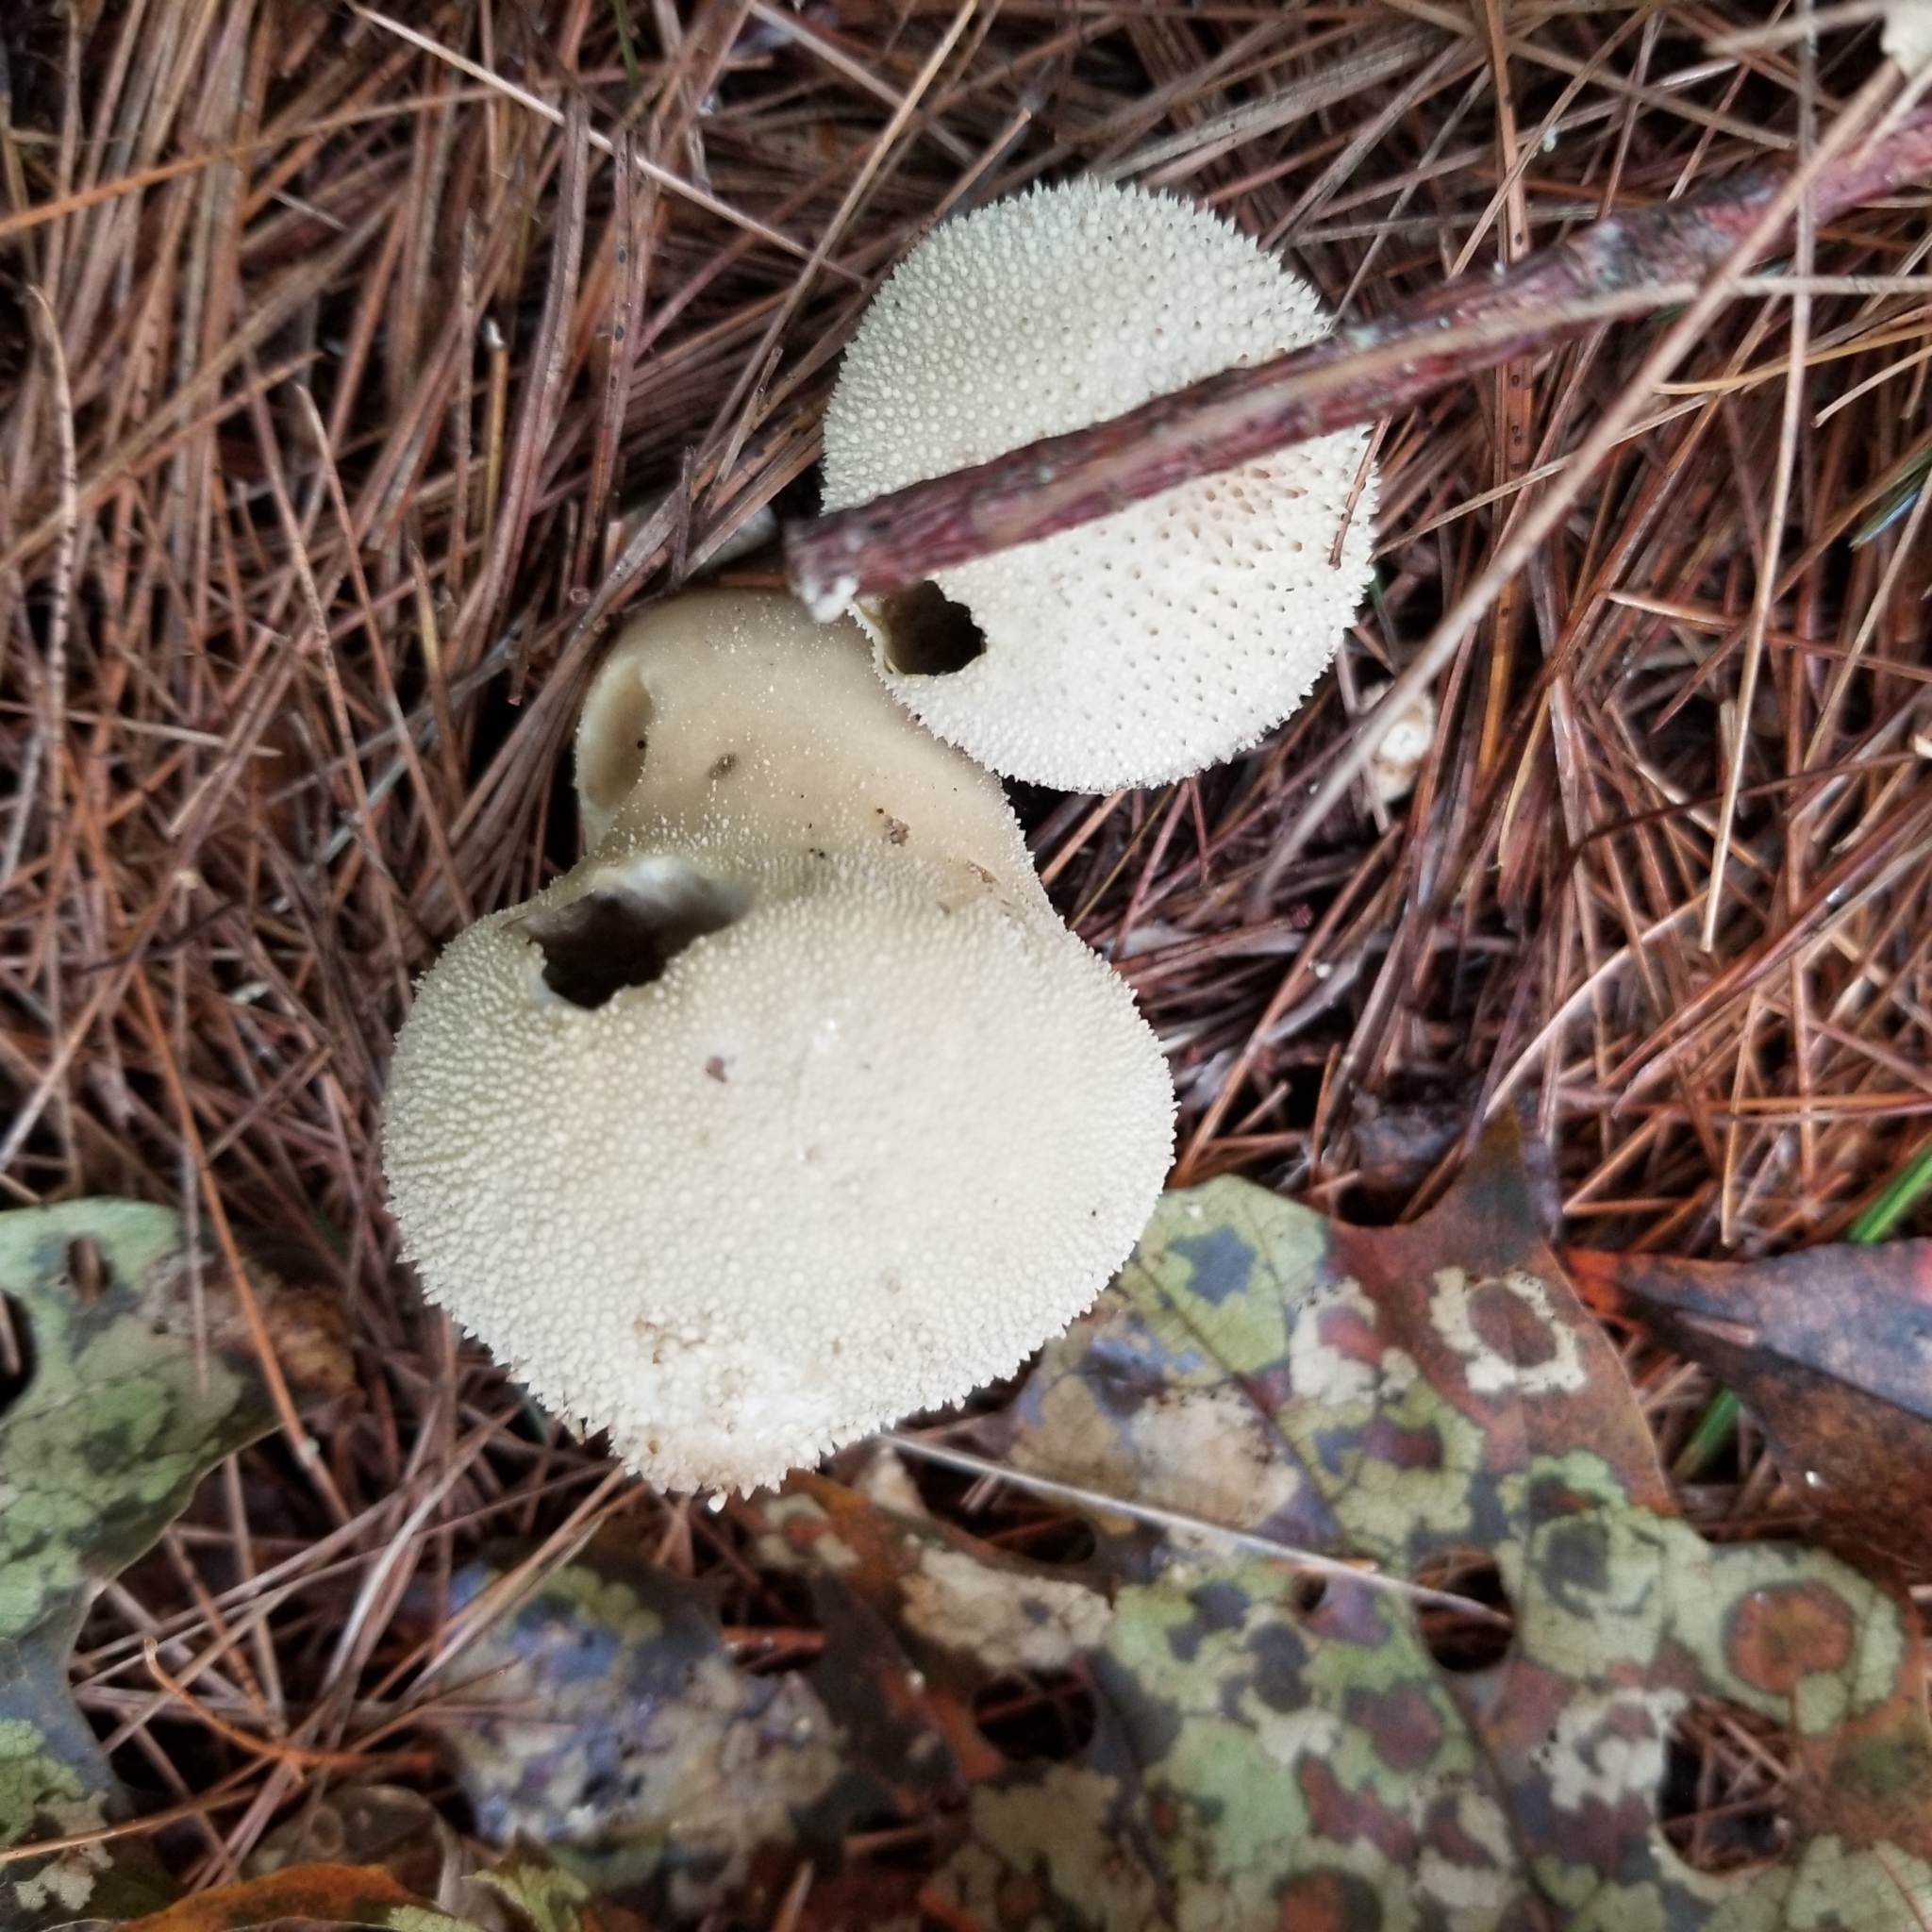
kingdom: Fungi
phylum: Basidiomycota
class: Agaricomycetes
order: Agaricales
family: Lycoperdaceae
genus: Lycoperdon
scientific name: Lycoperdon perlatum
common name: Common puffball
